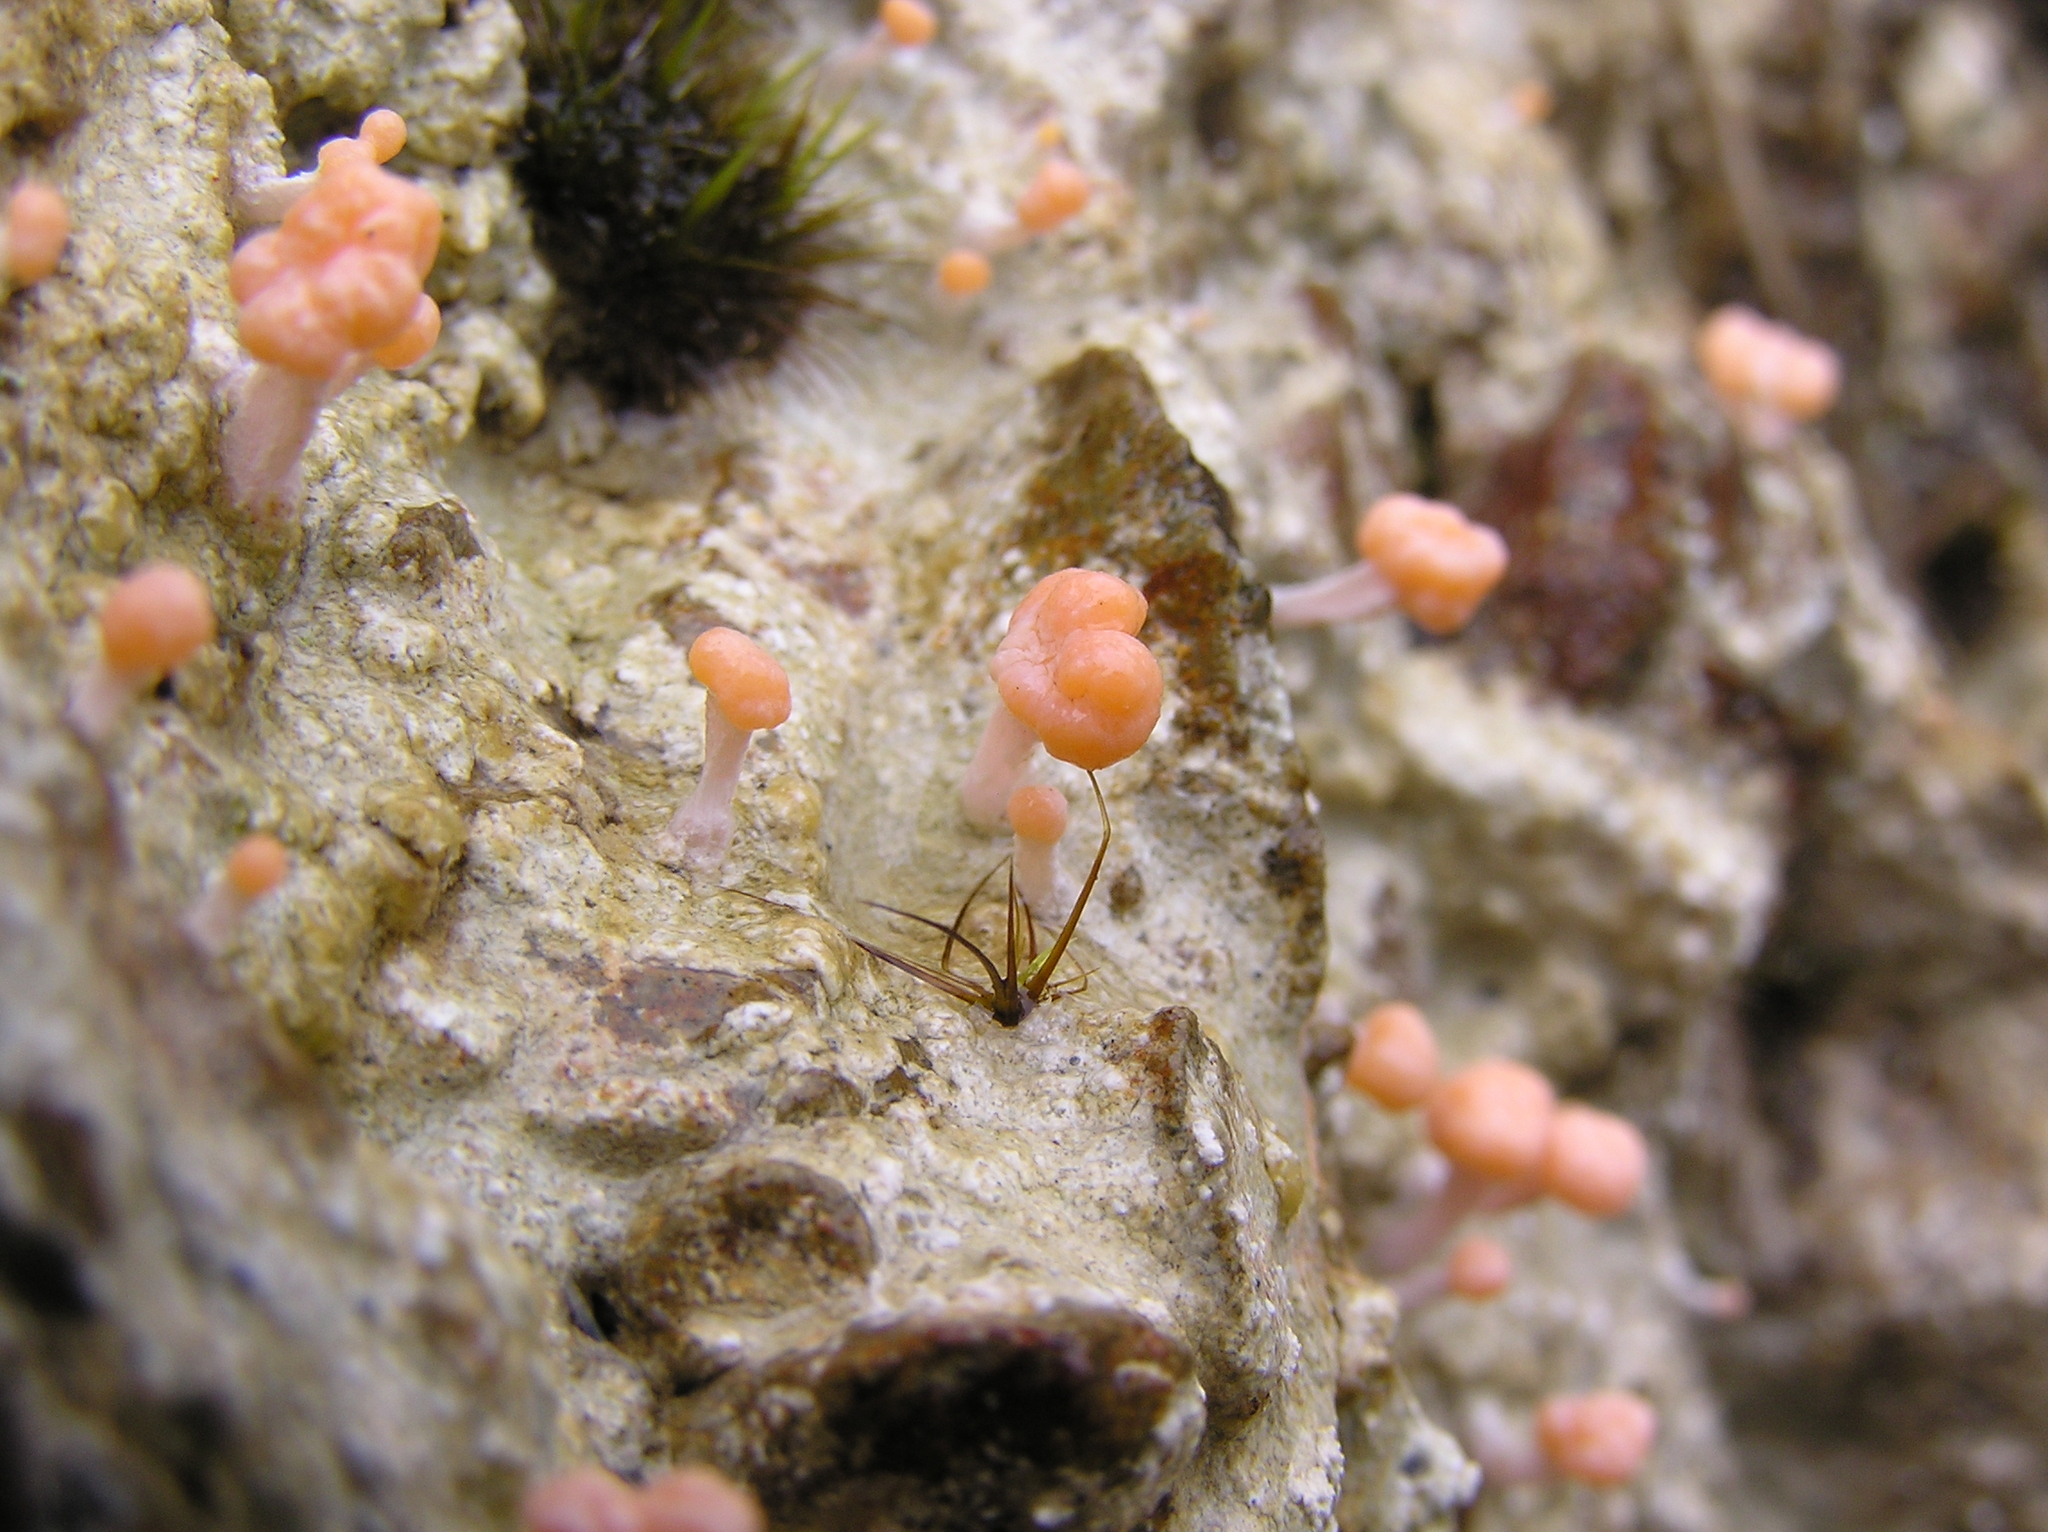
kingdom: Fungi
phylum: Ascomycota
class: Lecanoromycetes
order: Pertusariales
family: Icmadophilaceae
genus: Dibaeis
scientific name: Dibaeis arcuata
